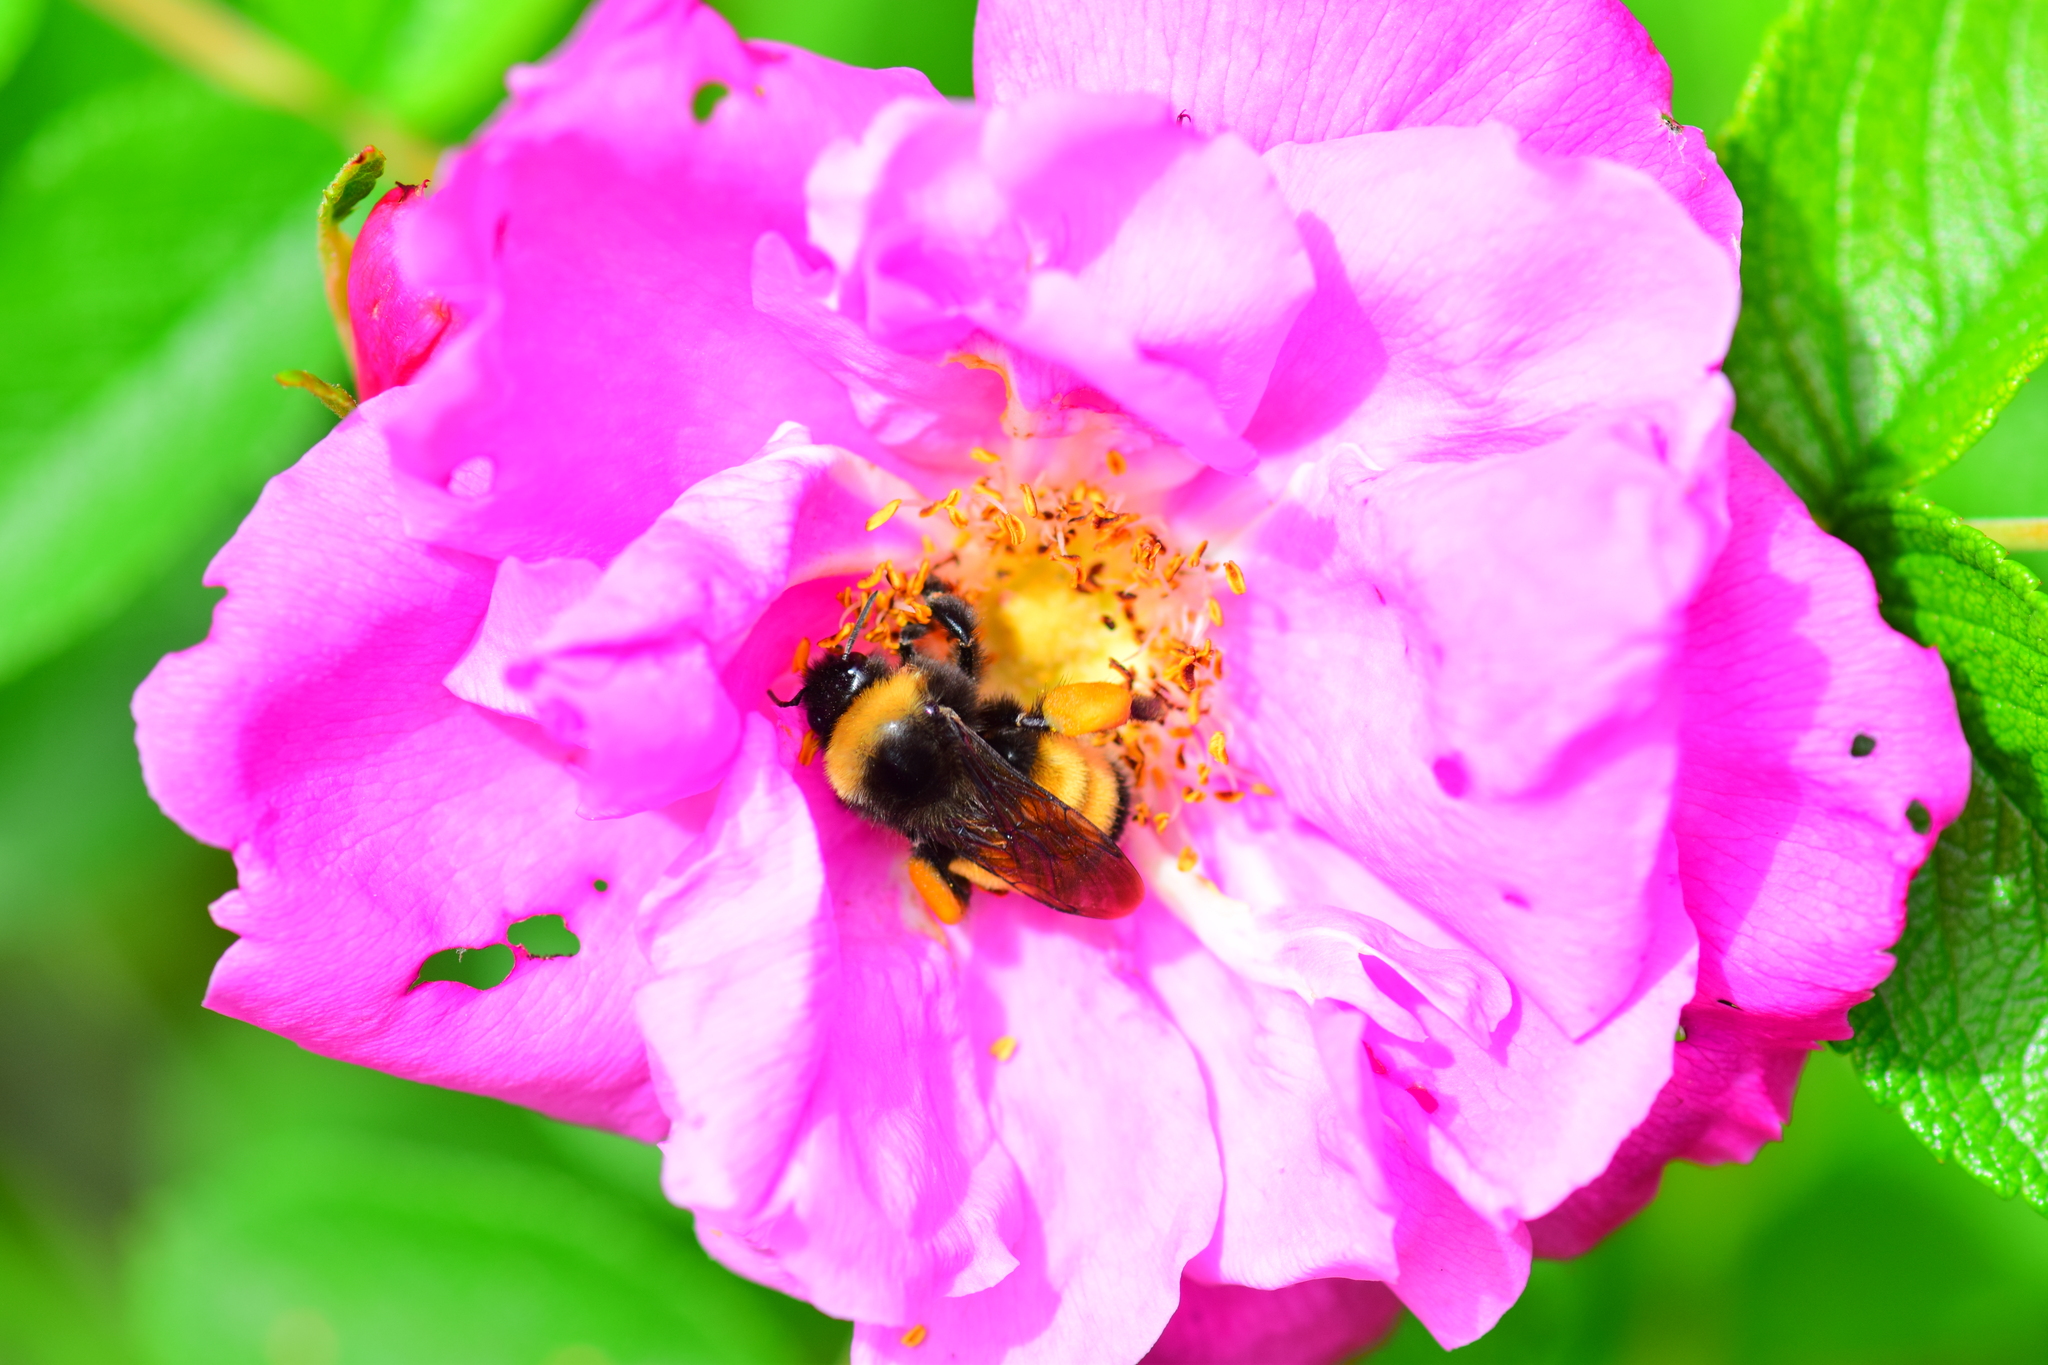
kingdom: Animalia
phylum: Arthropoda
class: Insecta
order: Hymenoptera
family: Apidae
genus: Bombus
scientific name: Bombus terricola
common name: Yellow-banded bumble bee
